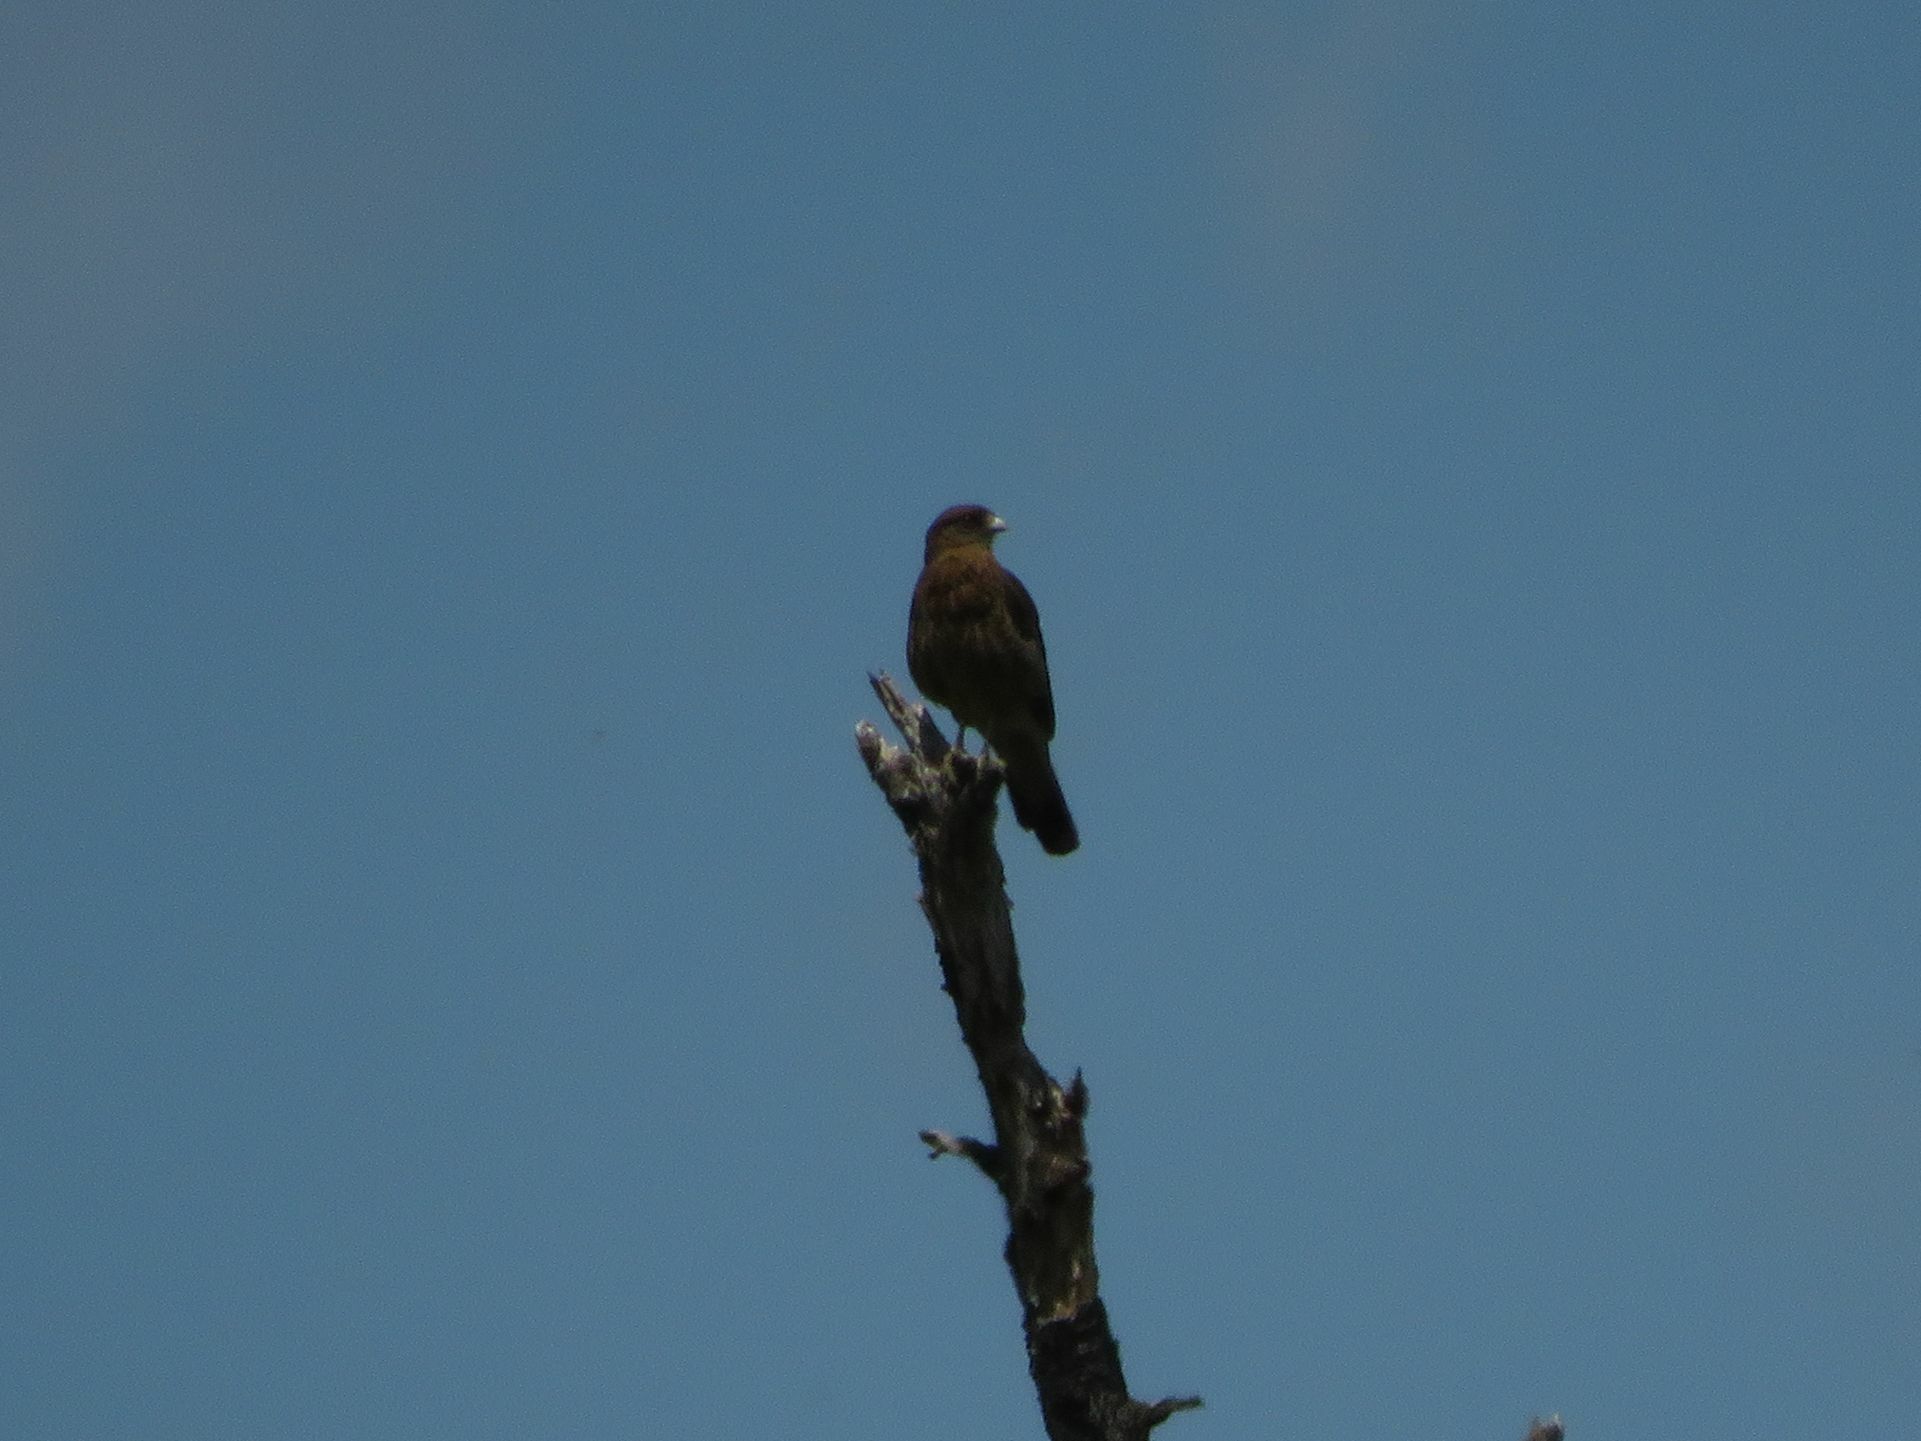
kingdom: Animalia
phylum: Chordata
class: Aves
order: Falconiformes
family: Falconidae
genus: Daptrius
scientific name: Daptrius
